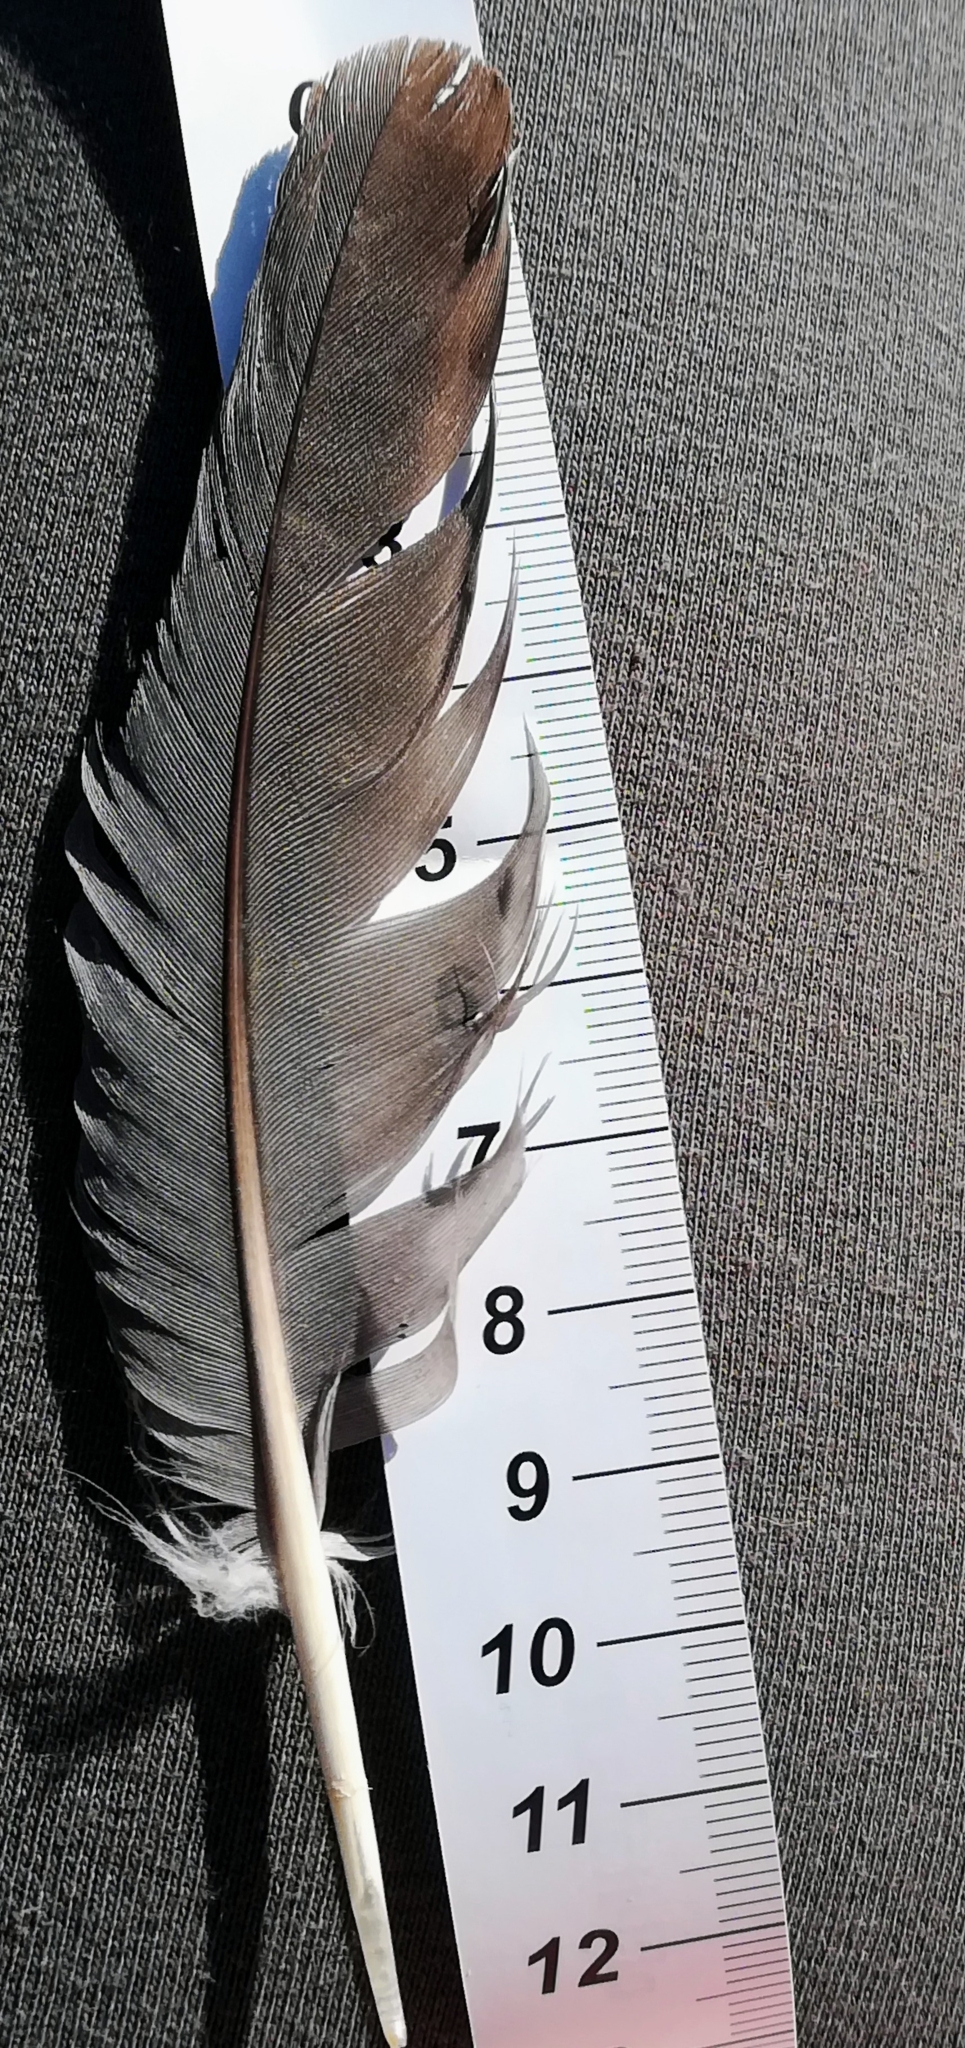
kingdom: Animalia
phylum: Chordata
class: Aves
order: Columbiformes
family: Columbidae
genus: Columba
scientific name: Columba palumbus
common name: Common wood pigeon
